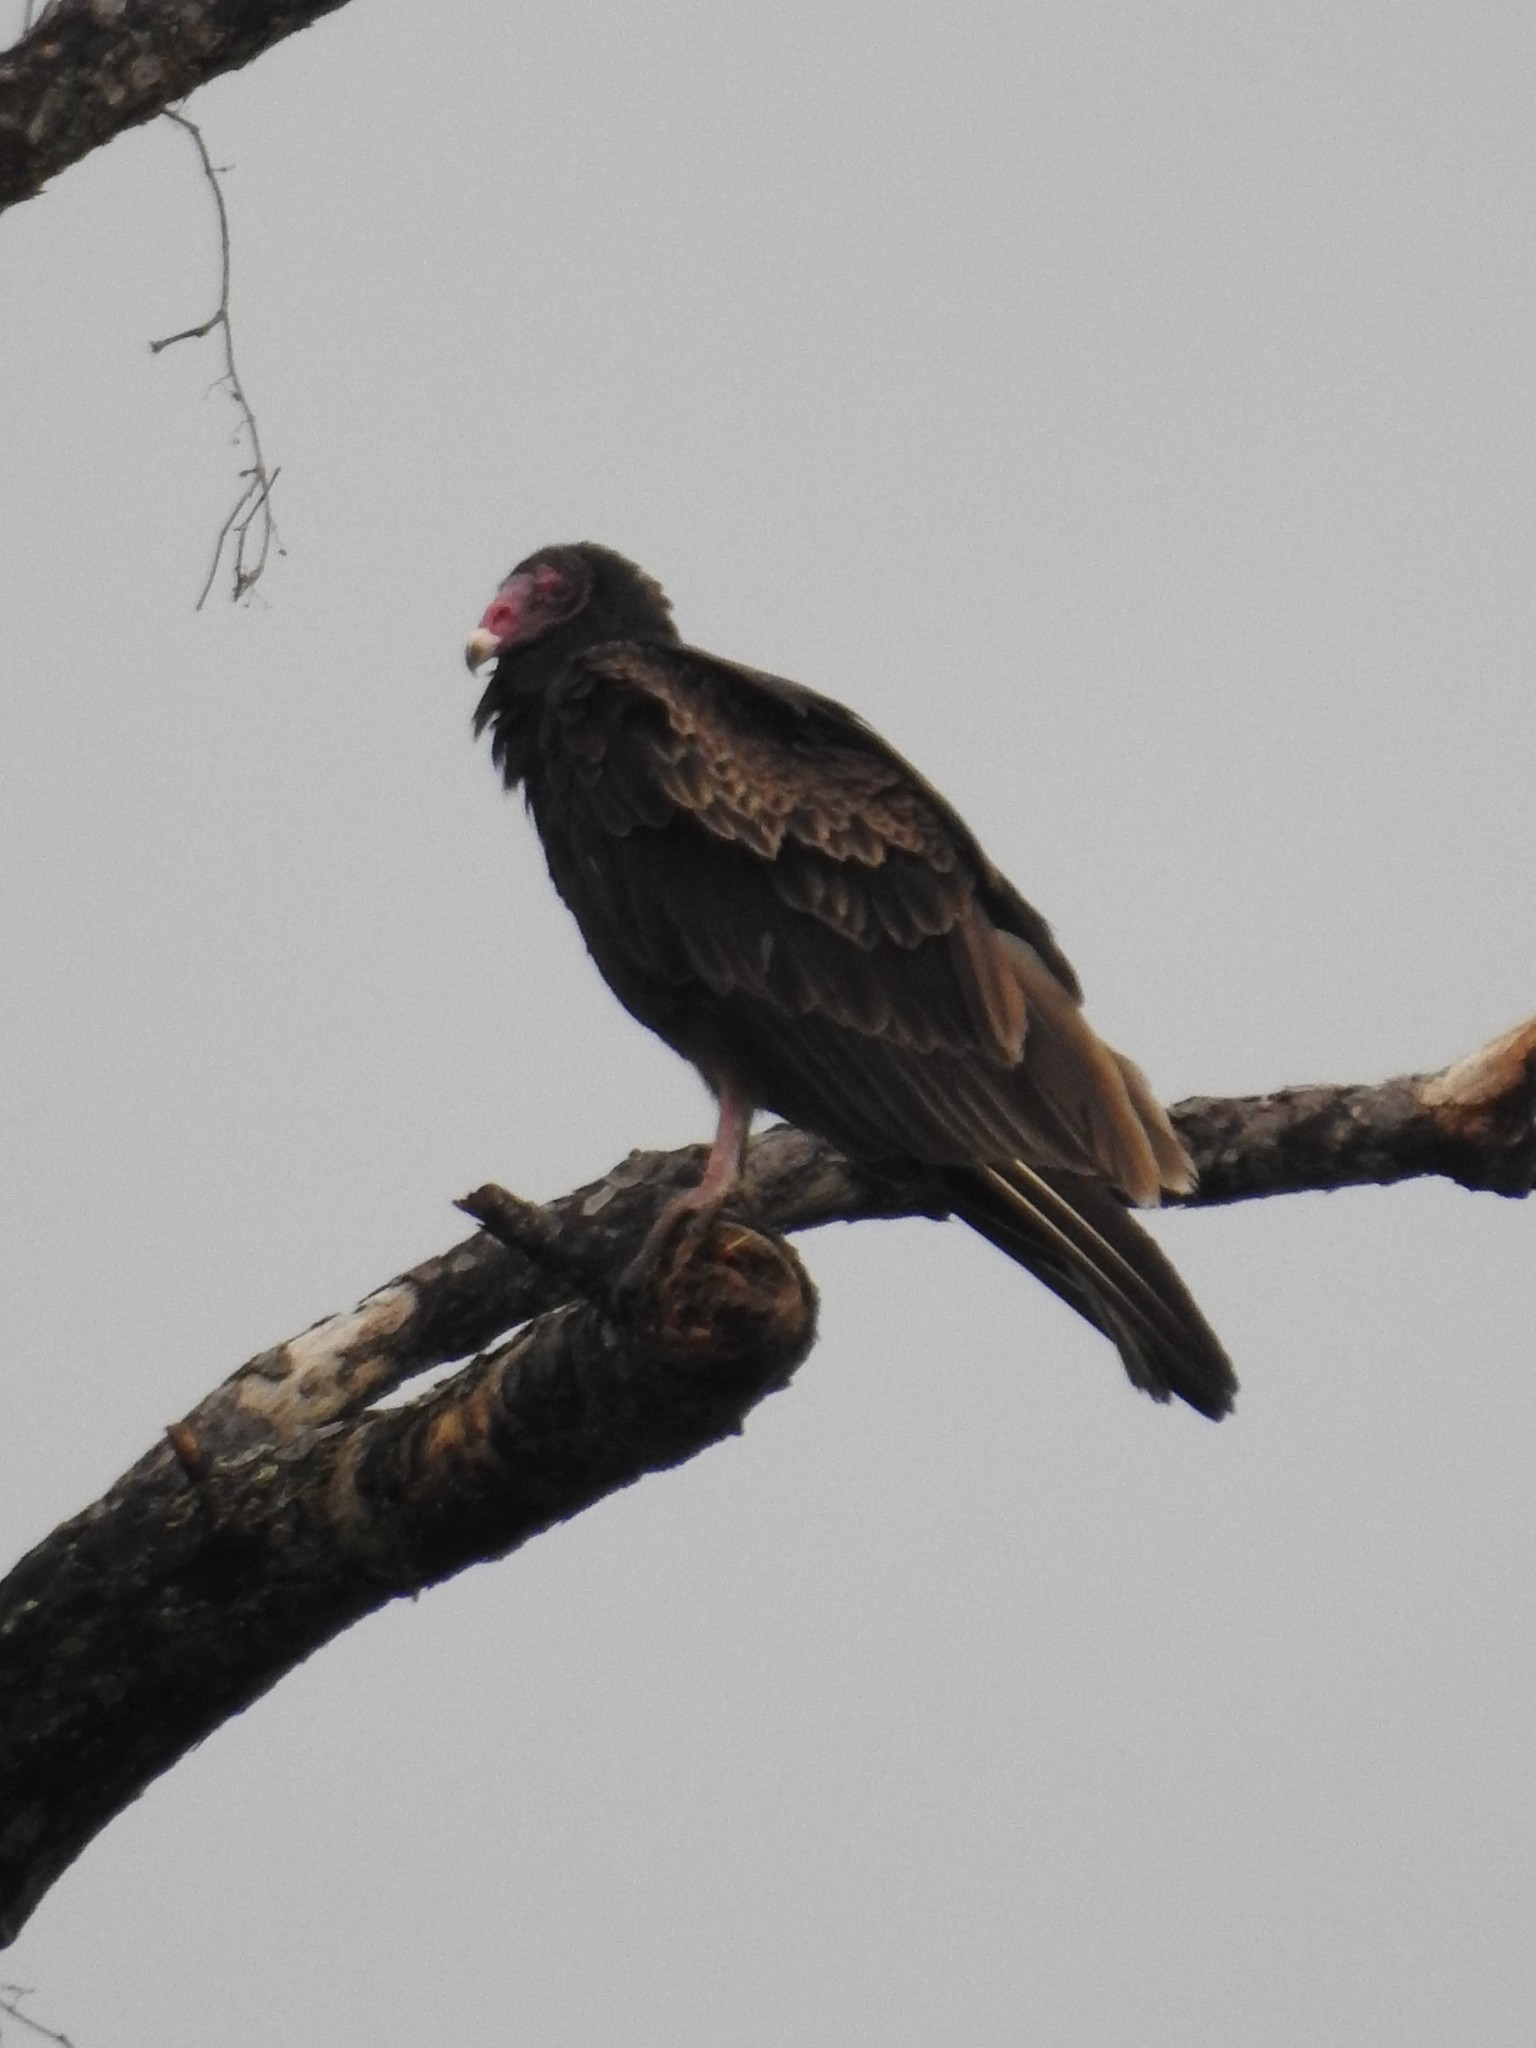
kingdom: Animalia
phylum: Chordata
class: Aves
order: Accipitriformes
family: Cathartidae
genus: Cathartes
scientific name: Cathartes aura
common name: Turkey vulture
